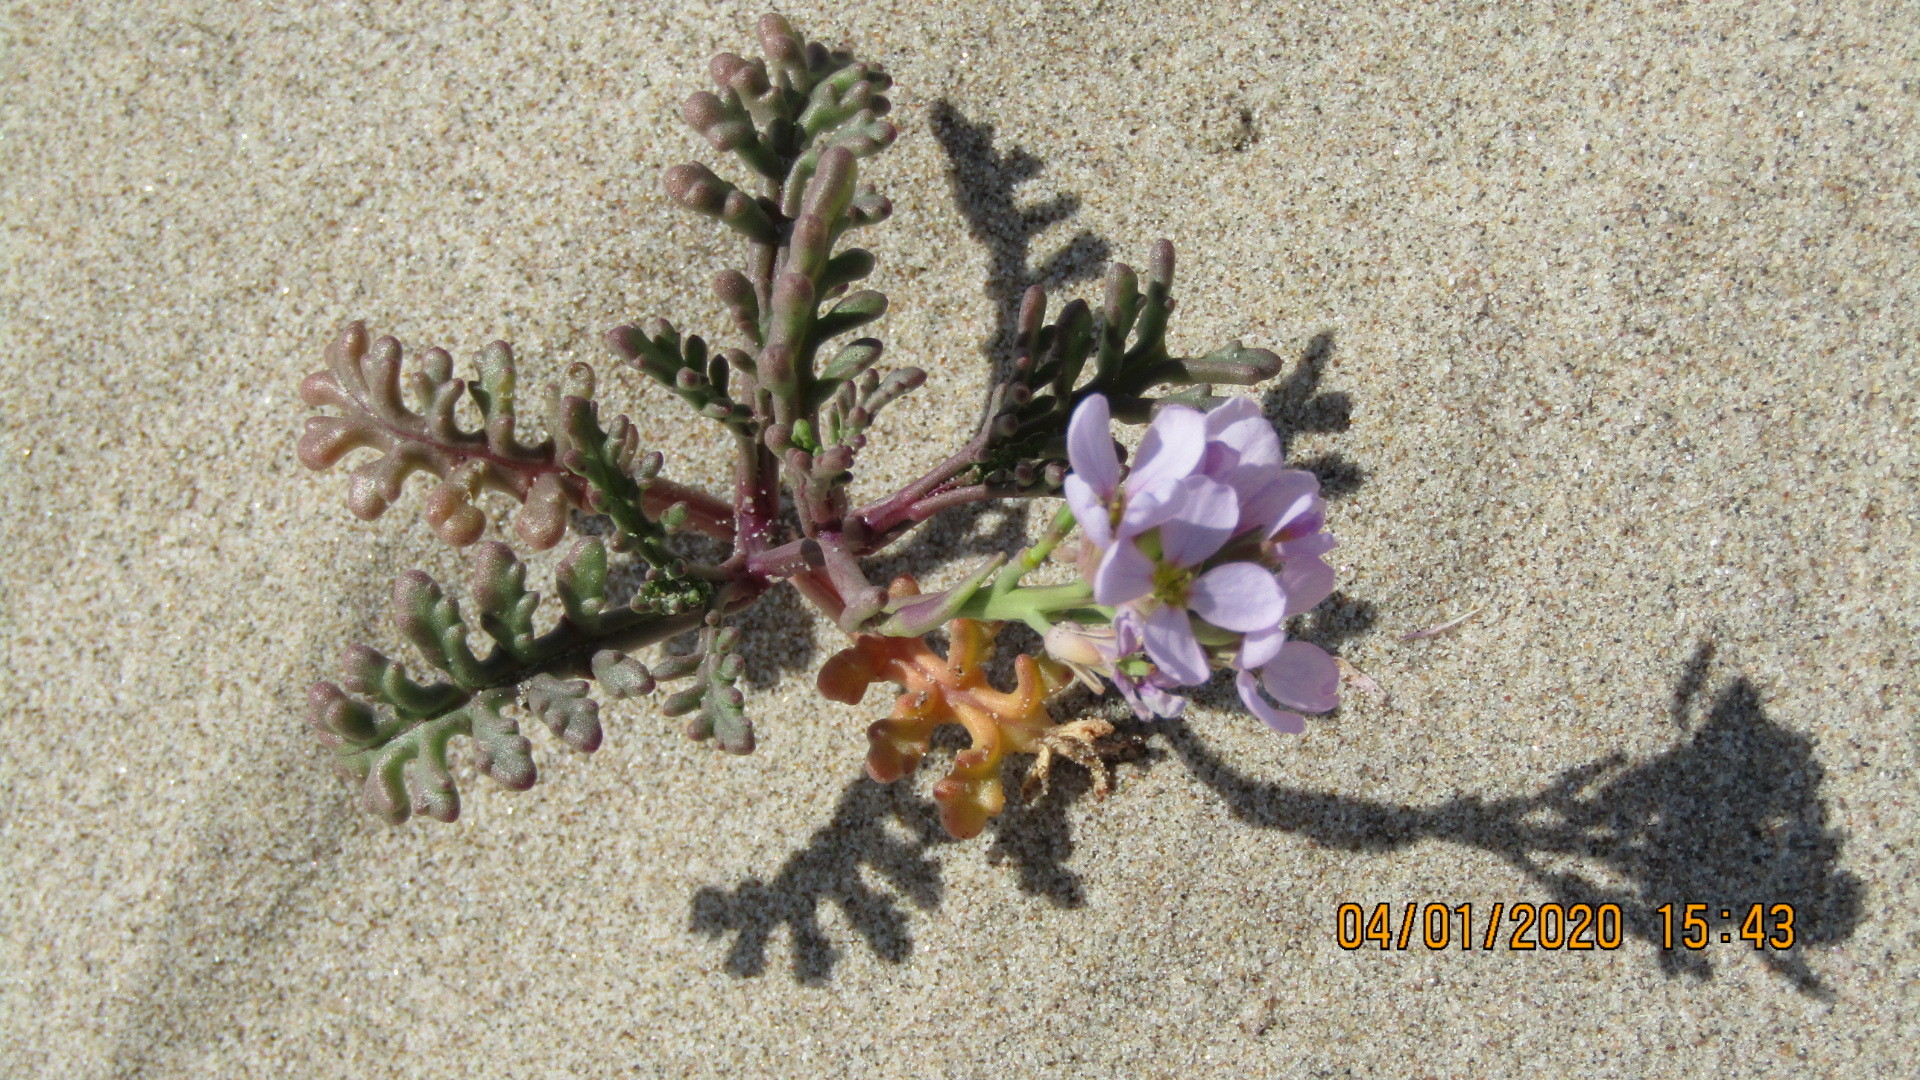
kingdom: Plantae
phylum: Tracheophyta
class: Magnoliopsida
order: Brassicales
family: Brassicaceae
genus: Cakile
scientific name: Cakile maritima
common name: Sea rocket
